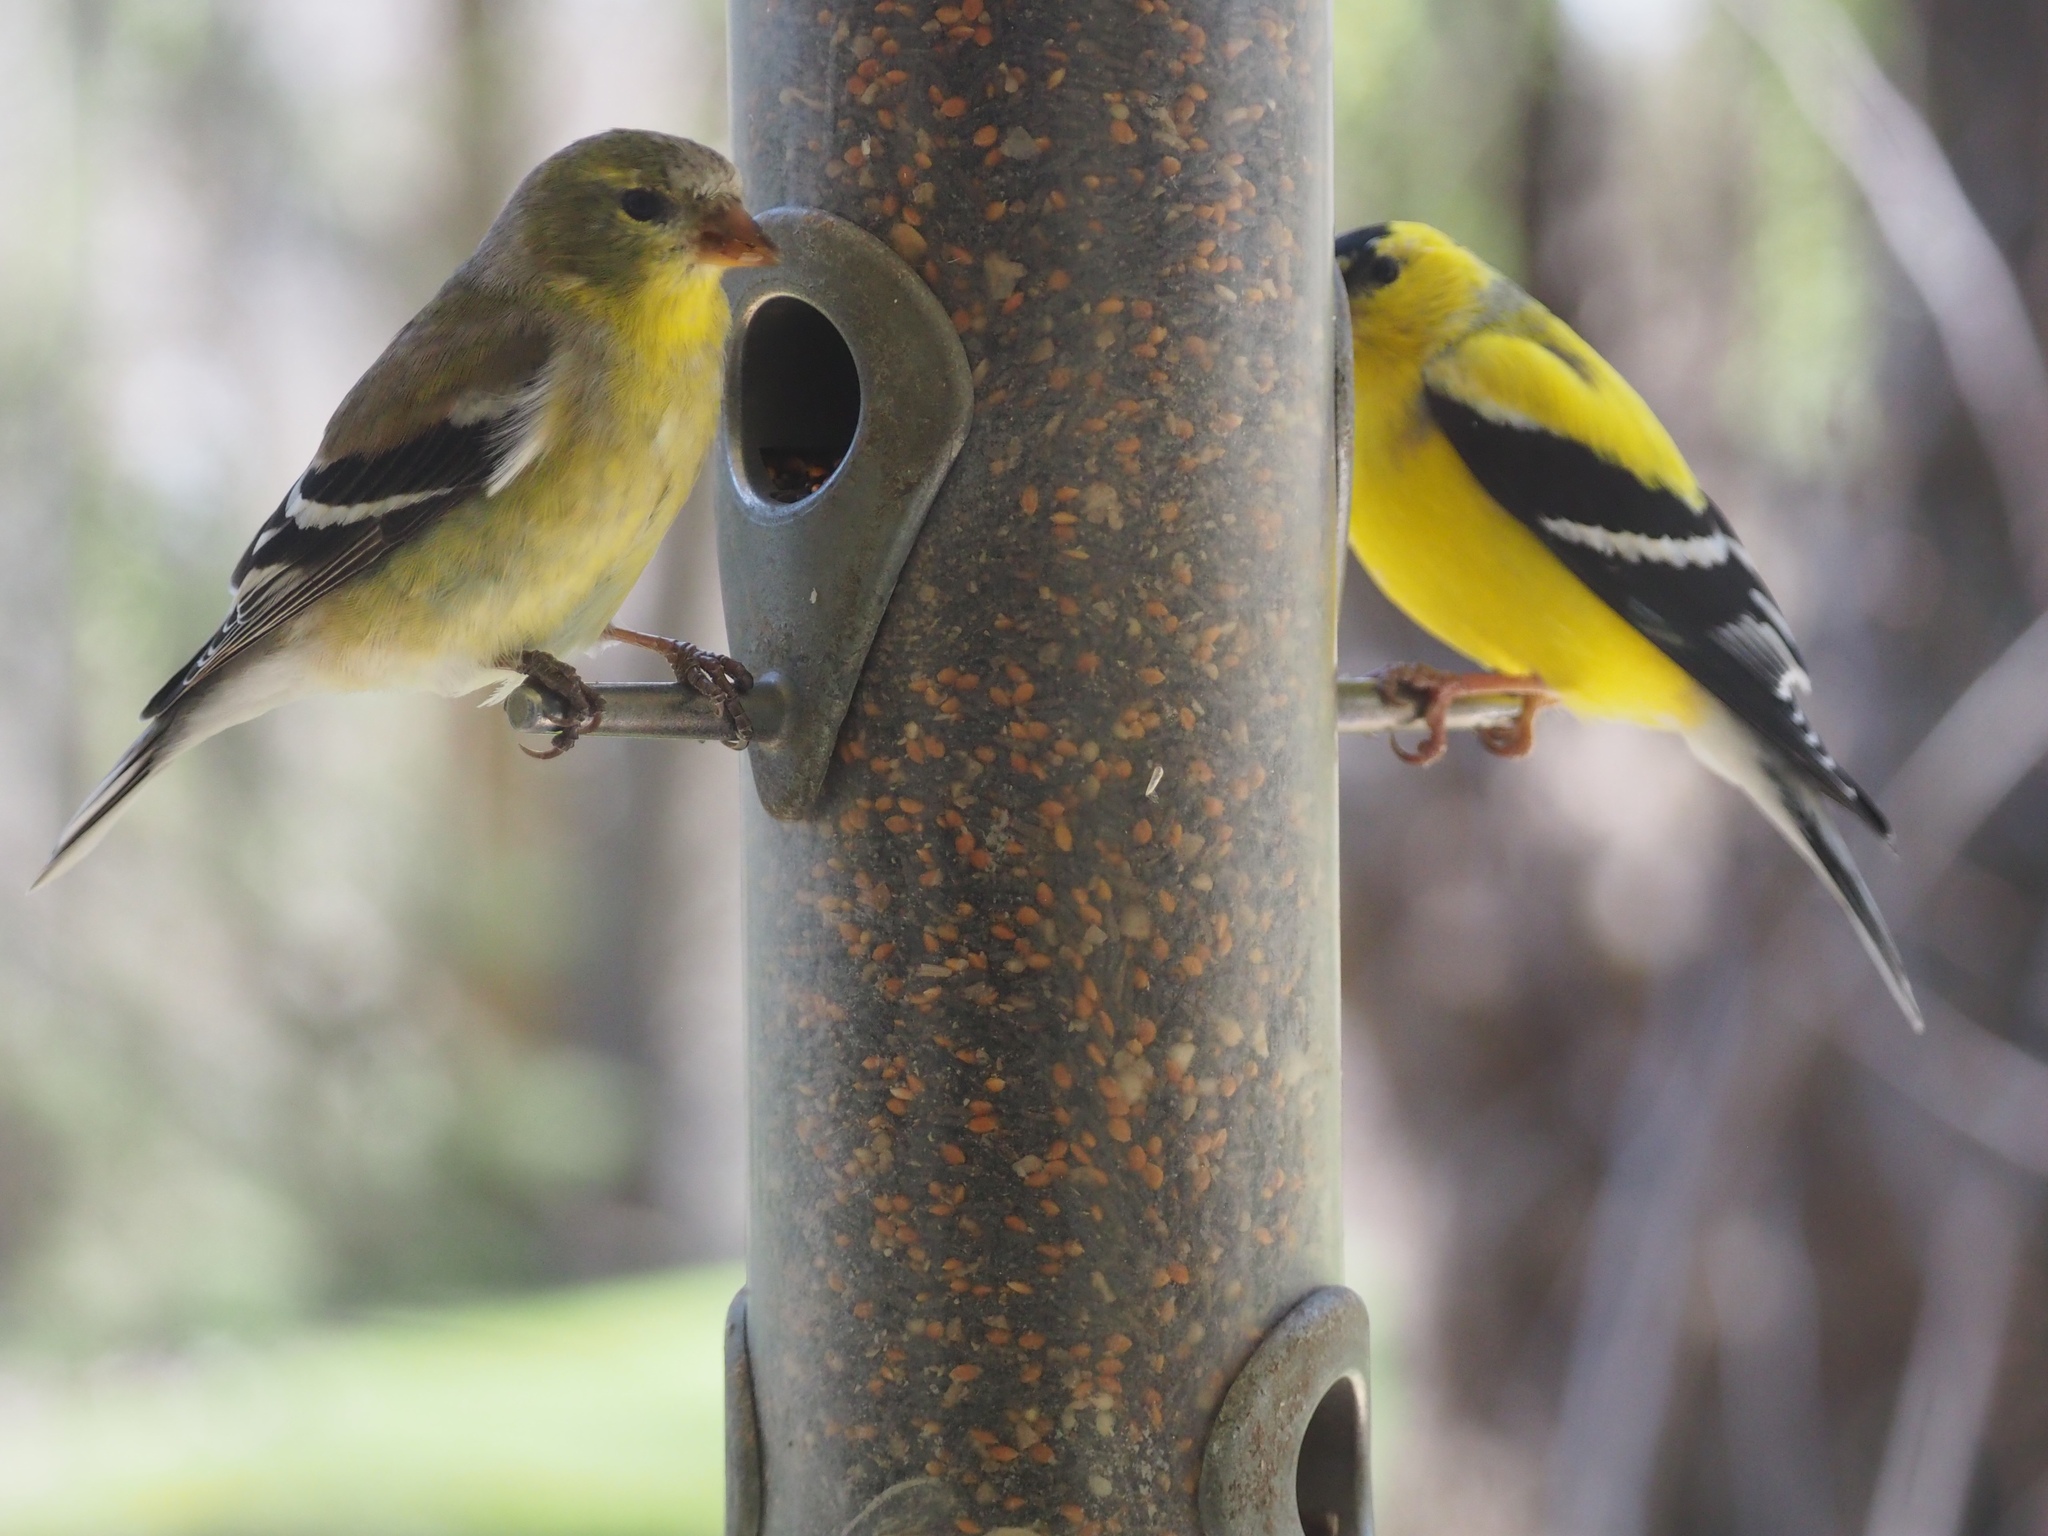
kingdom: Animalia
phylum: Chordata
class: Aves
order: Passeriformes
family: Fringillidae
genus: Spinus
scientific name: Spinus tristis
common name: American goldfinch
